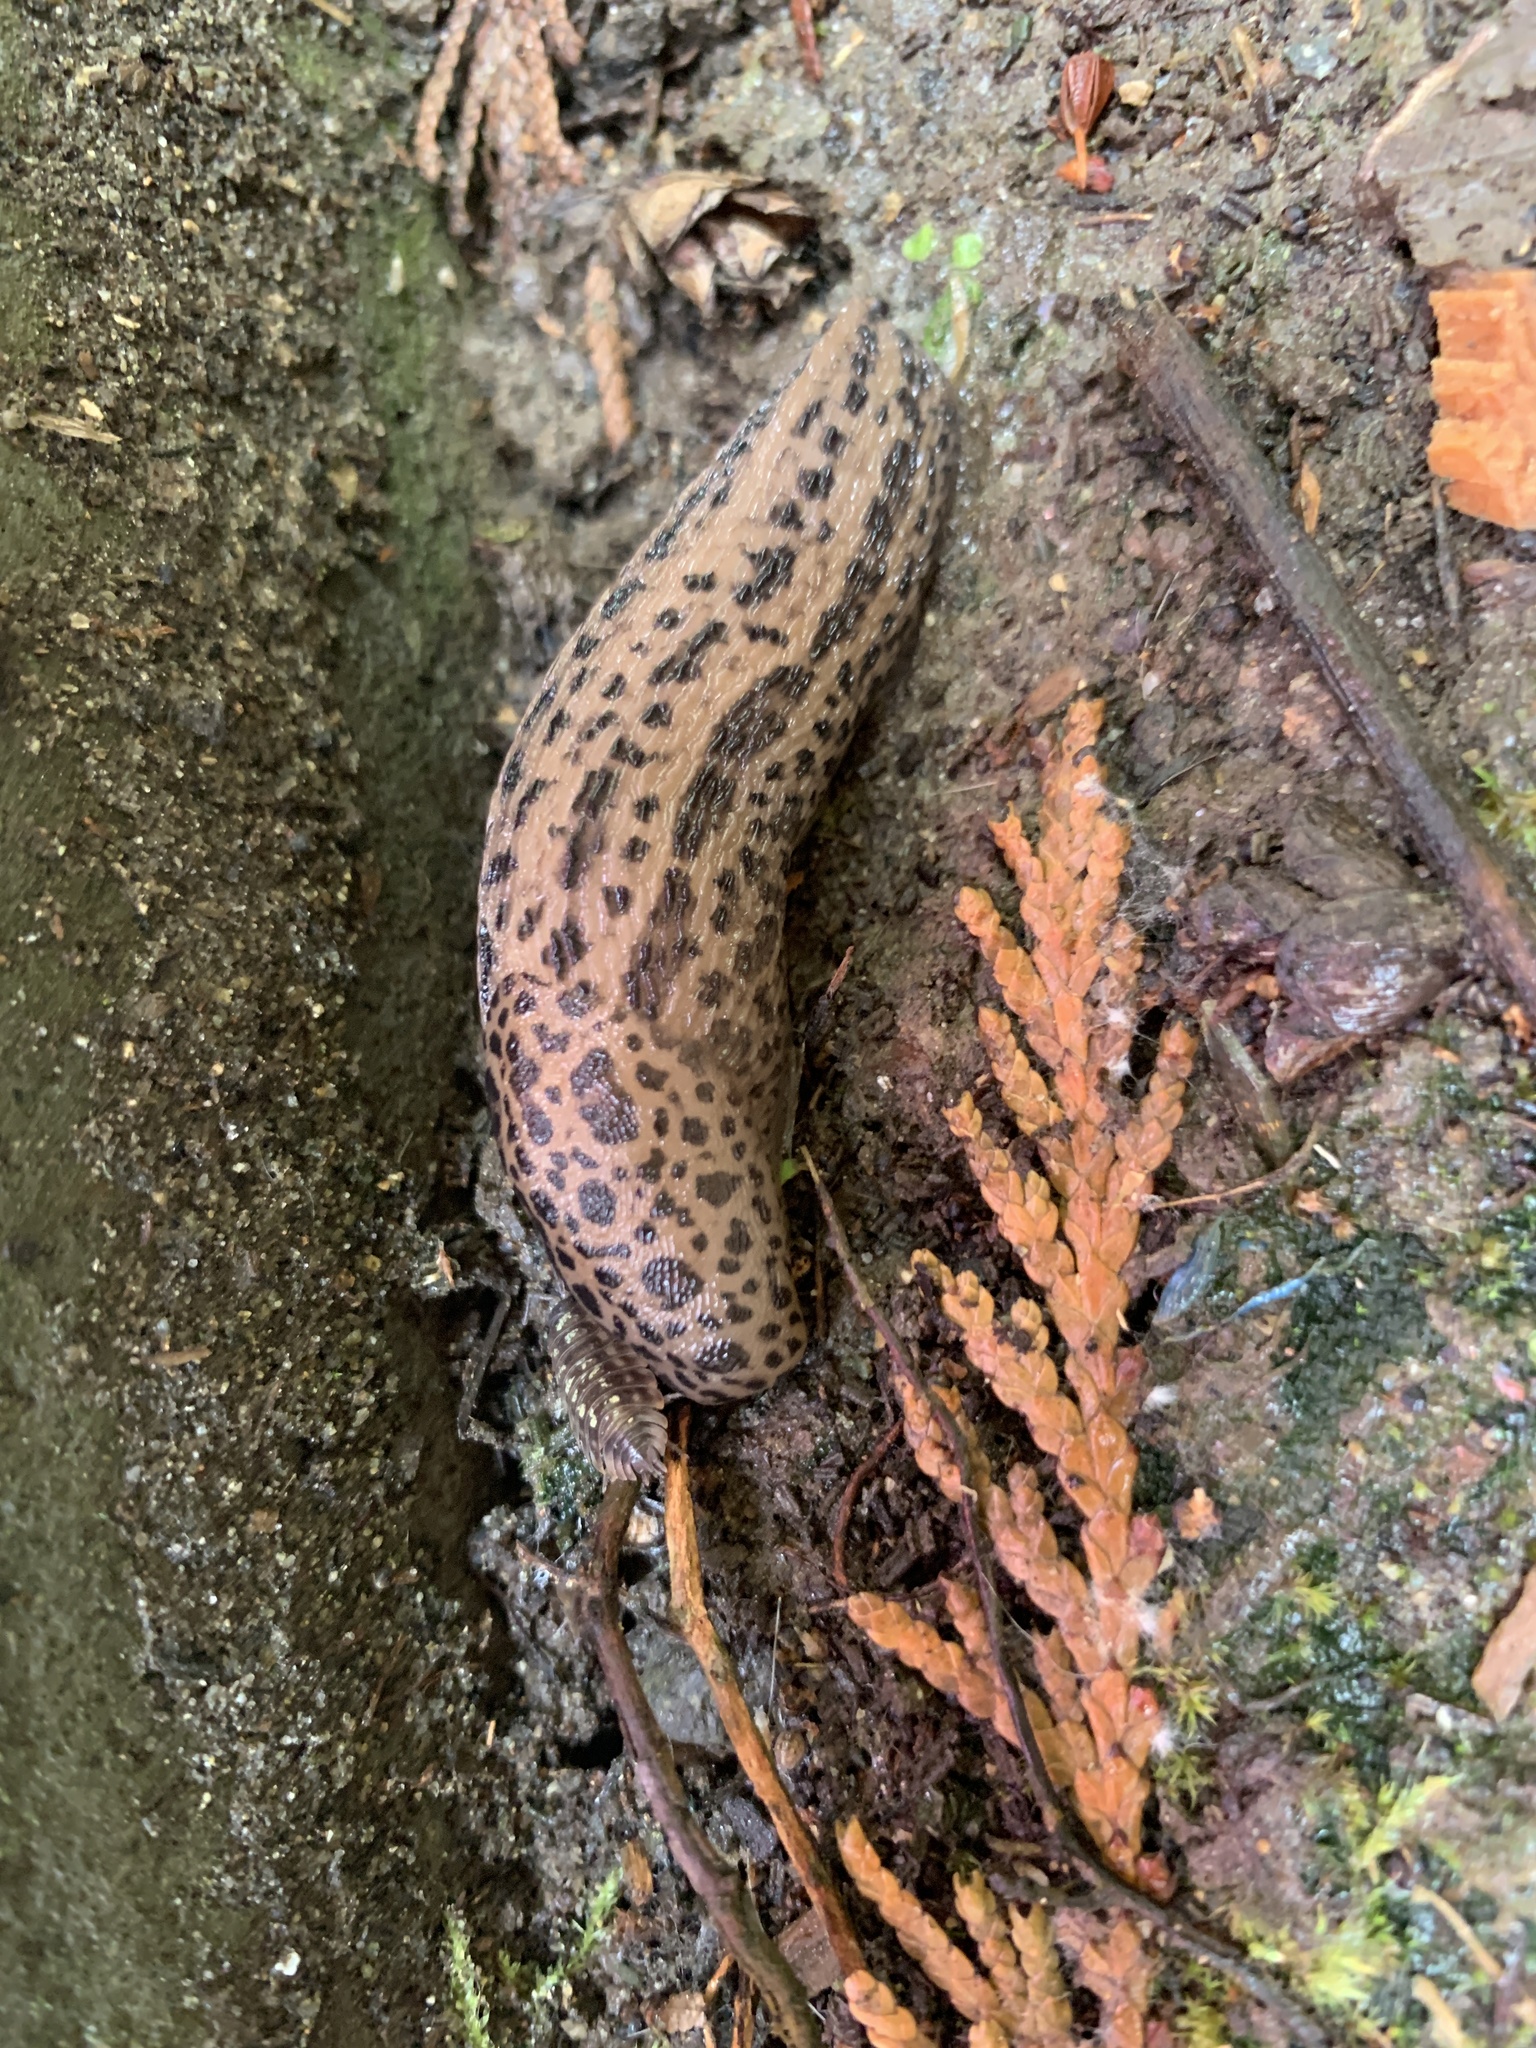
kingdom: Animalia
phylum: Mollusca
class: Gastropoda
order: Stylommatophora
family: Limacidae
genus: Limax
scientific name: Limax maximus
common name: Great grey slug
